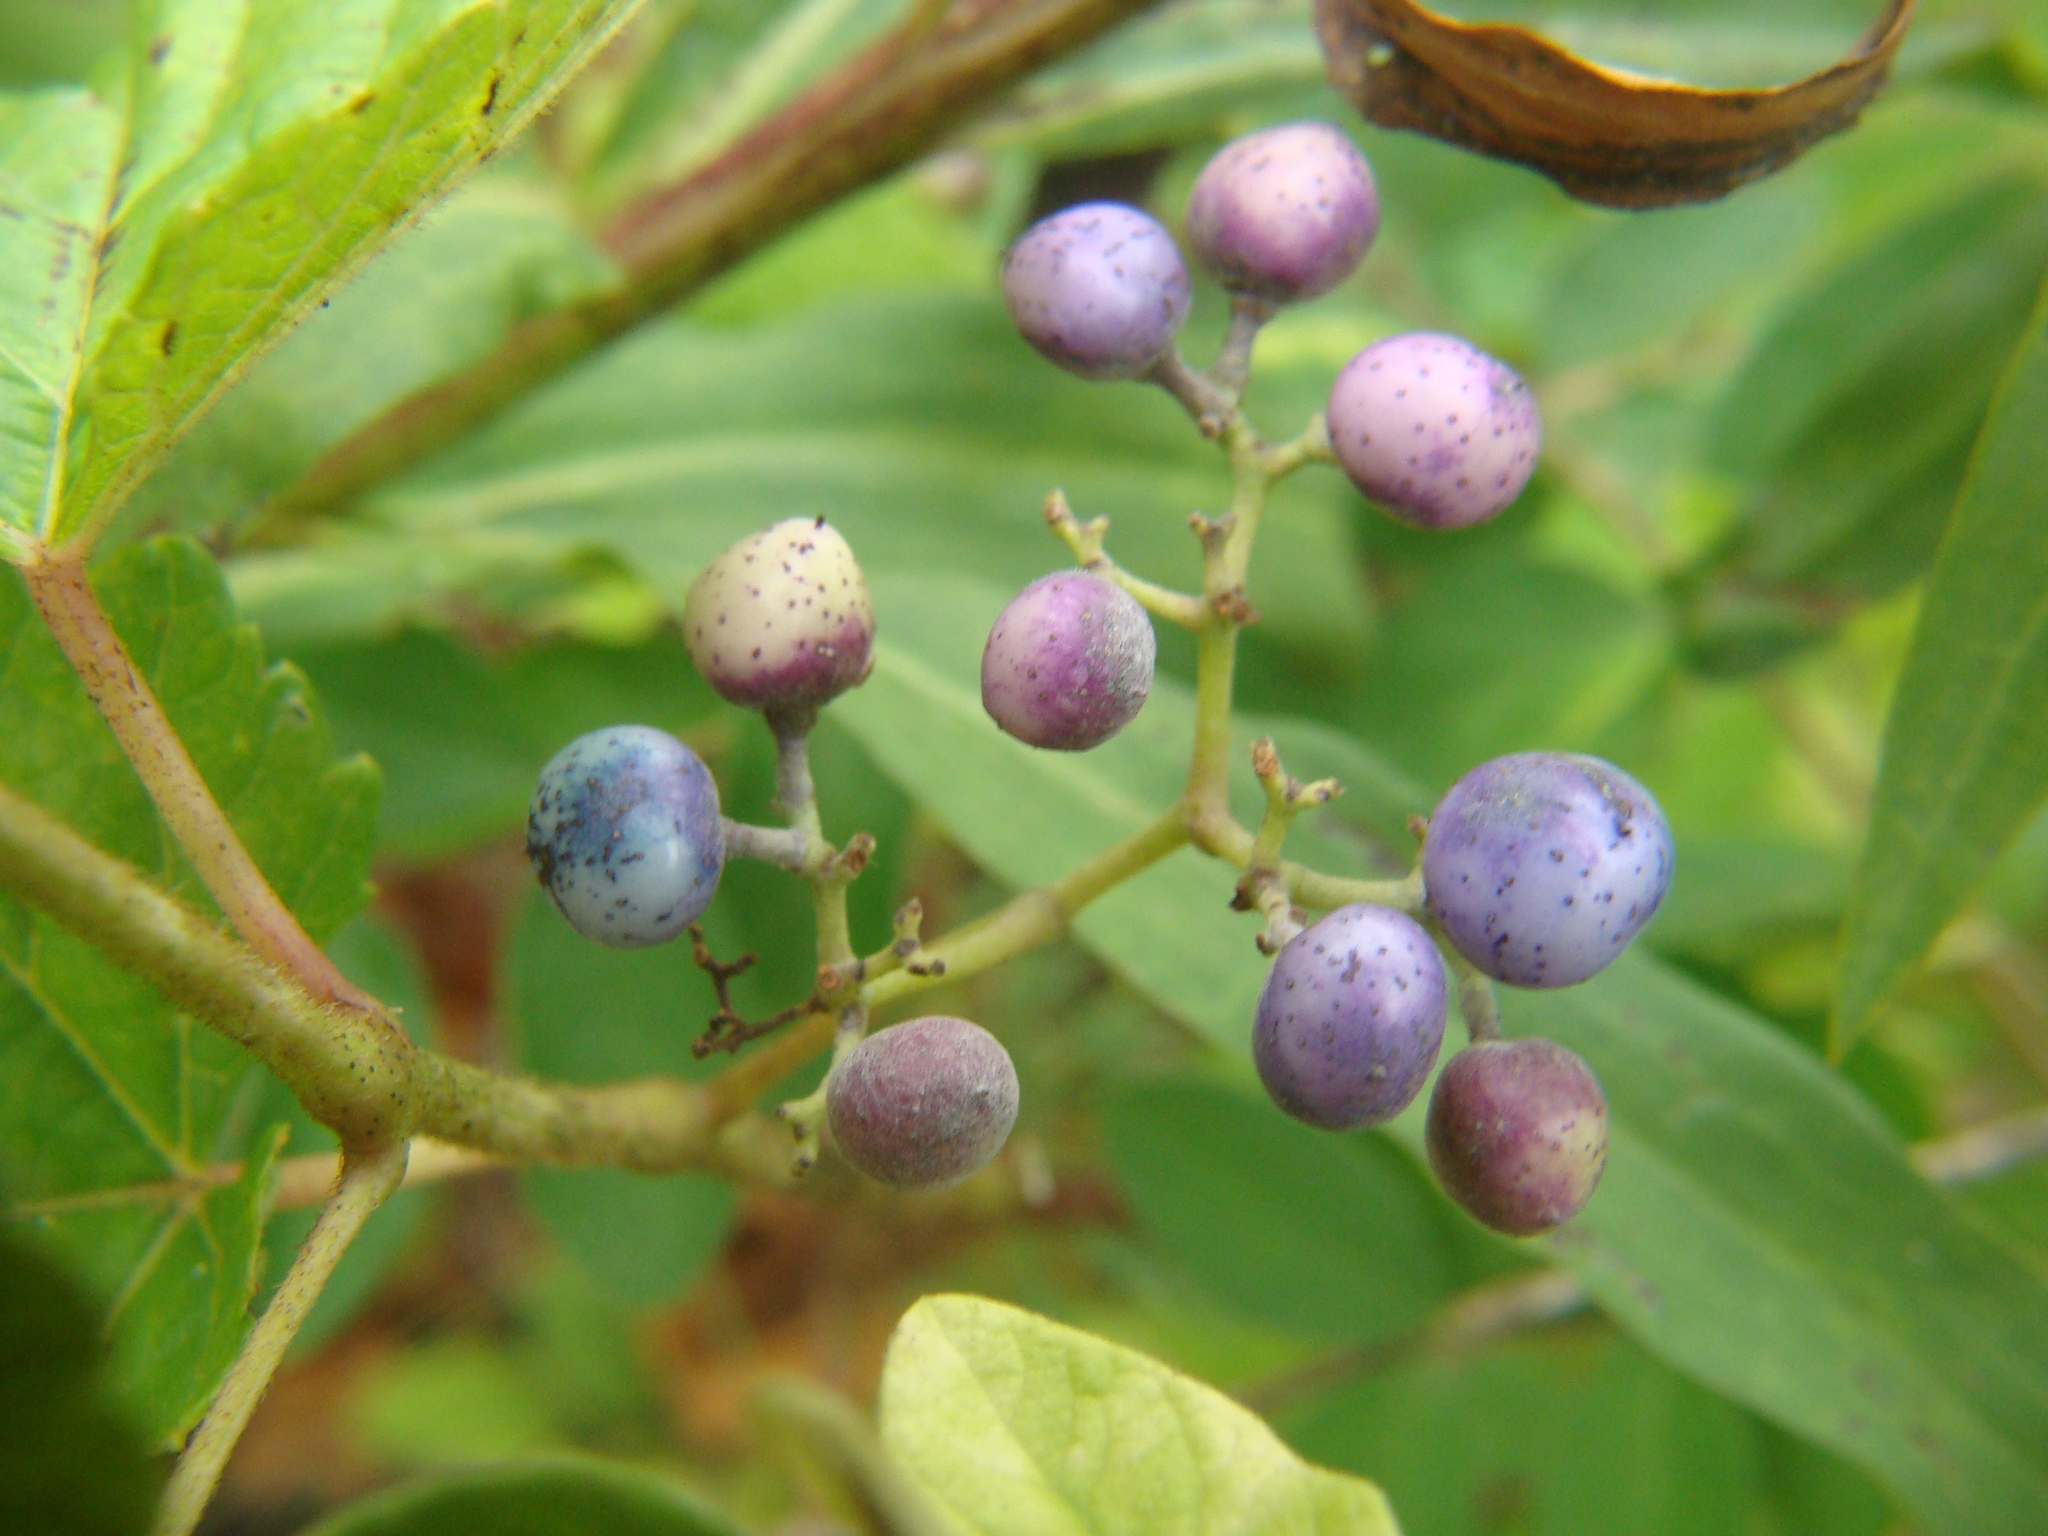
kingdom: Plantae
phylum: Tracheophyta
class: Magnoliopsida
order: Vitales
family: Vitaceae
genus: Ampelopsis
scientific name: Ampelopsis glandulosa
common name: Amur peppervine
